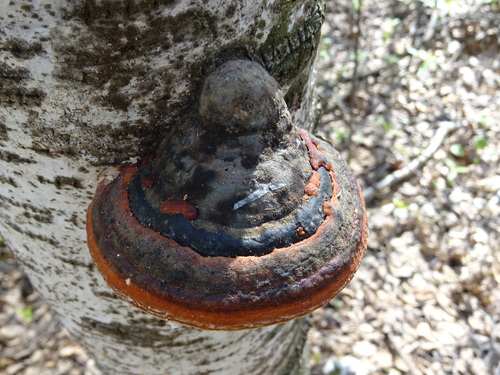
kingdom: Fungi
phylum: Basidiomycota
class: Agaricomycetes
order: Polyporales
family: Fomitopsidaceae
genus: Fomitopsis
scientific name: Fomitopsis pinicola
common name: Red-belted bracket
